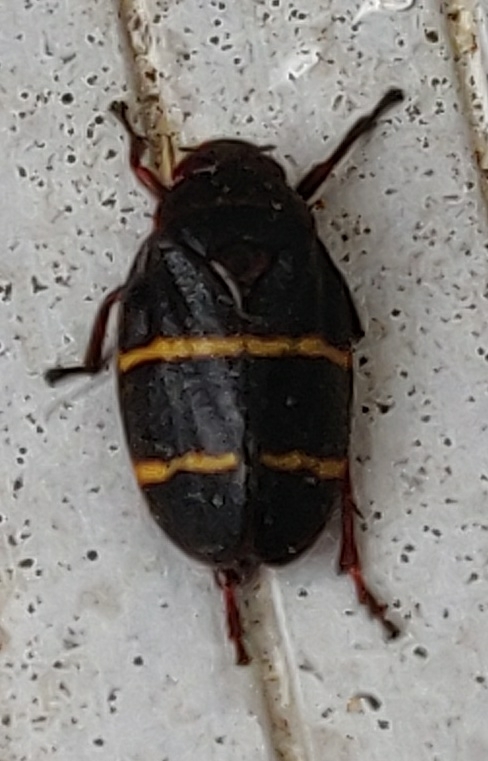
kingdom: Animalia
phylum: Arthropoda
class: Insecta
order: Hemiptera
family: Cercopidae
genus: Prosapia
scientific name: Prosapia bicincta
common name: Twolined spittlebug
